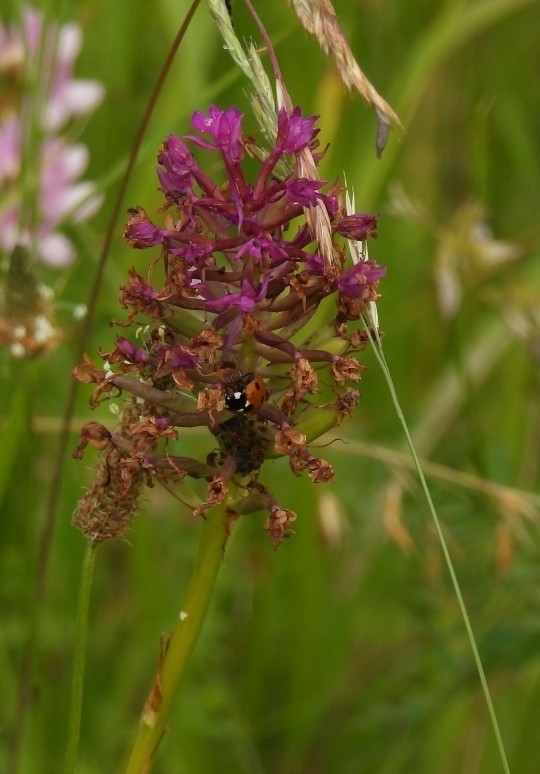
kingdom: Plantae
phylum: Tracheophyta
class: Liliopsida
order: Asparagales
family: Orchidaceae
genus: Anacamptis
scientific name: Anacamptis pyramidalis
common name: Pyramidal orchid
